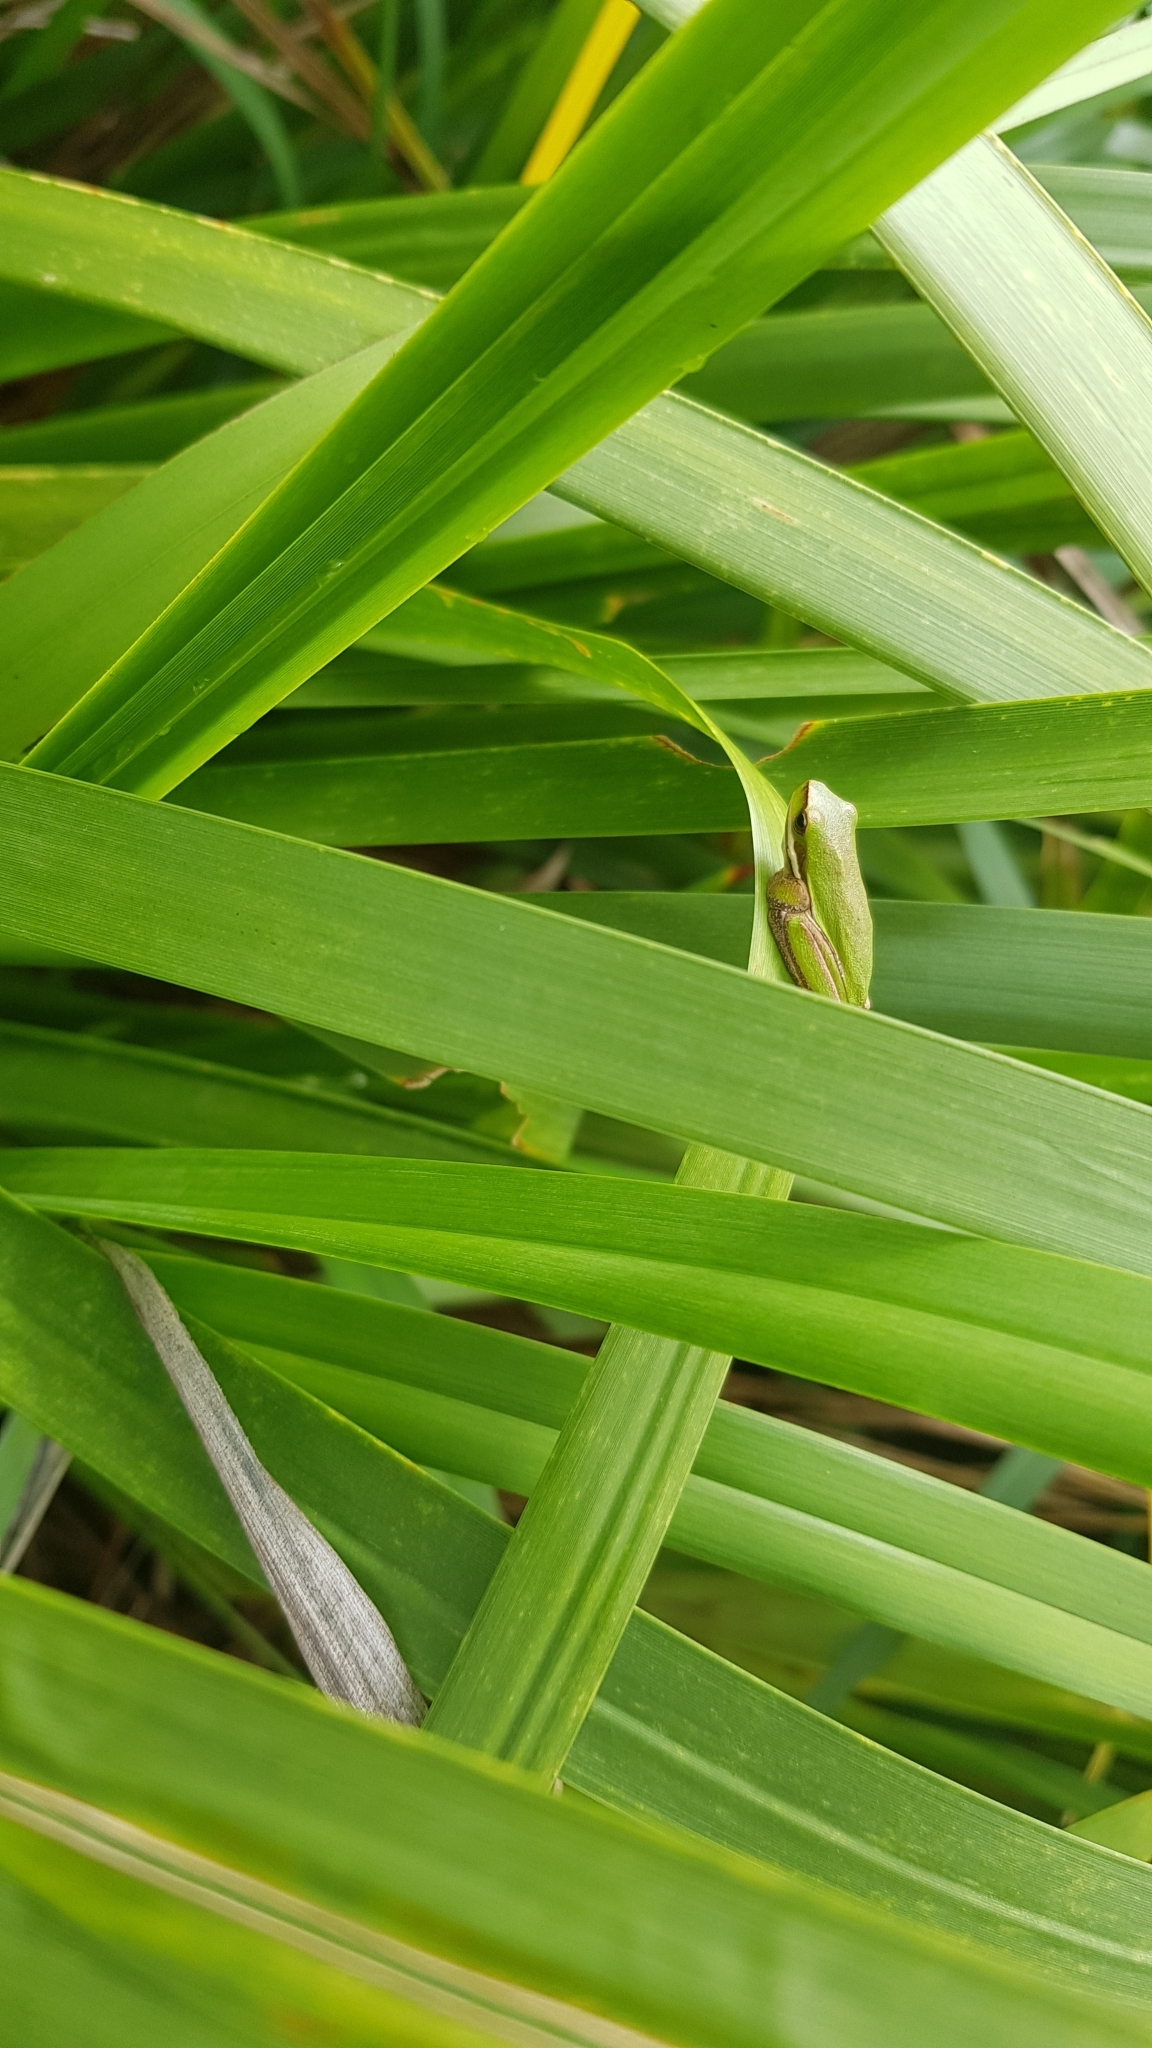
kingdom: Animalia
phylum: Chordata
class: Amphibia
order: Anura
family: Pelodryadidae
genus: Litoria
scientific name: Litoria fallax
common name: Eastern dwarf treefrog
